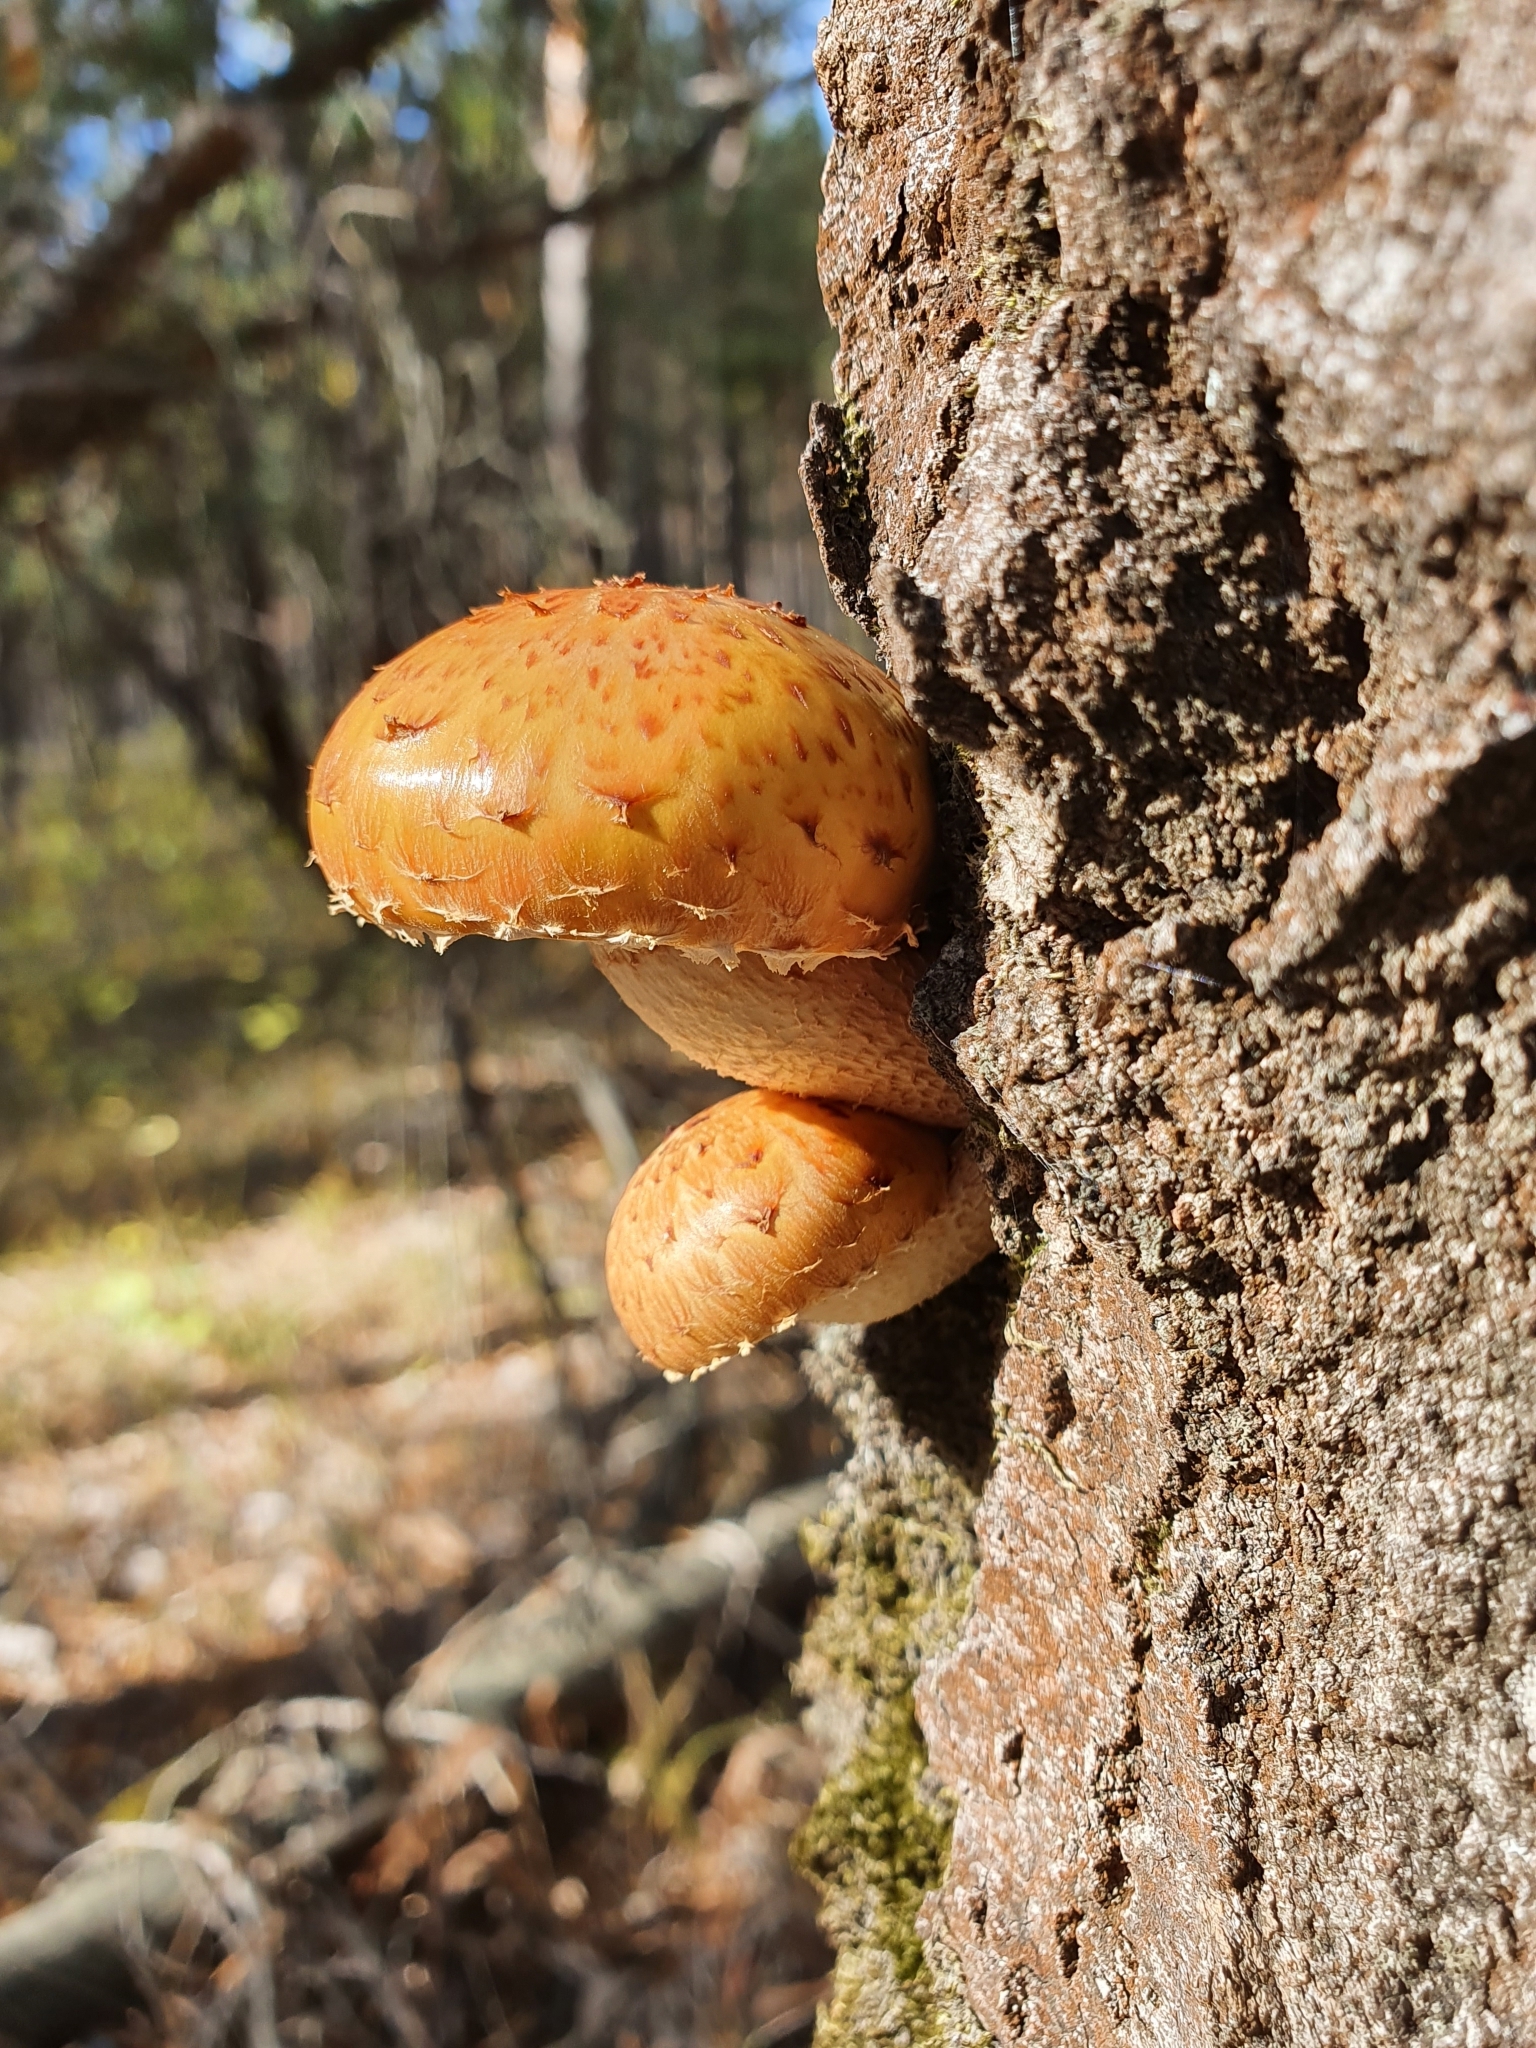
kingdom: Fungi
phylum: Basidiomycota
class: Agaricomycetes
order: Agaricales
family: Strophariaceae
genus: Pholiota
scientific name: Pholiota aurivella
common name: Golden scalycap
